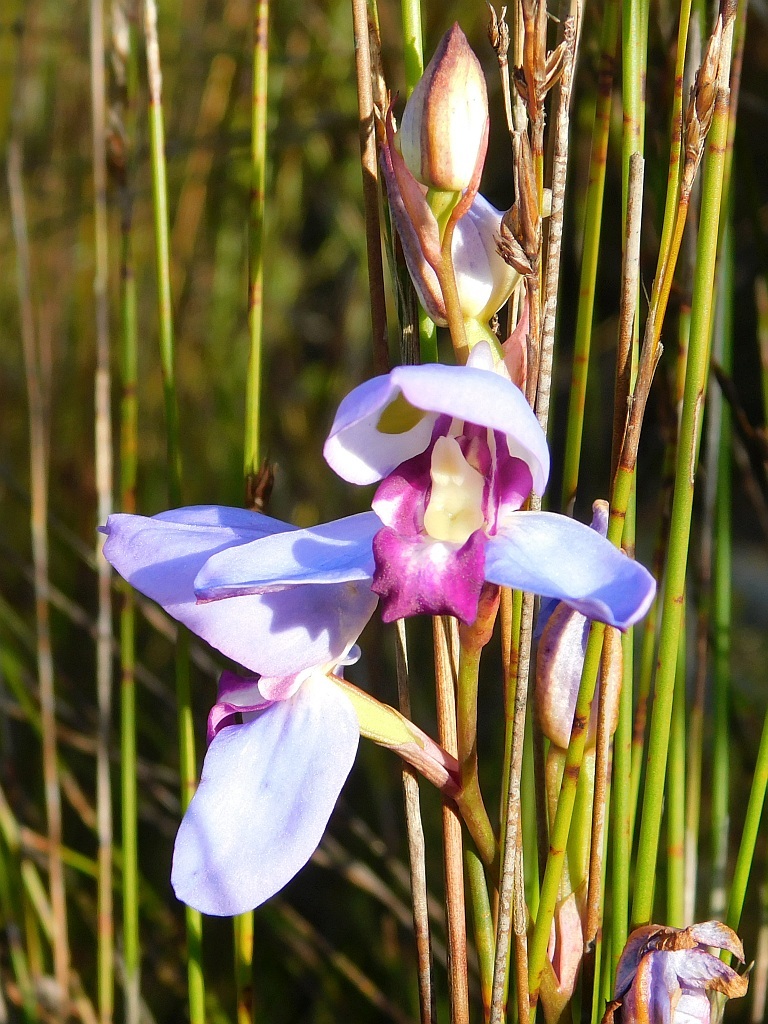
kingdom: Plantae
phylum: Tracheophyta
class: Liliopsida
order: Asparagales
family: Orchidaceae
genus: Disa
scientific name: Disa graminifolia
